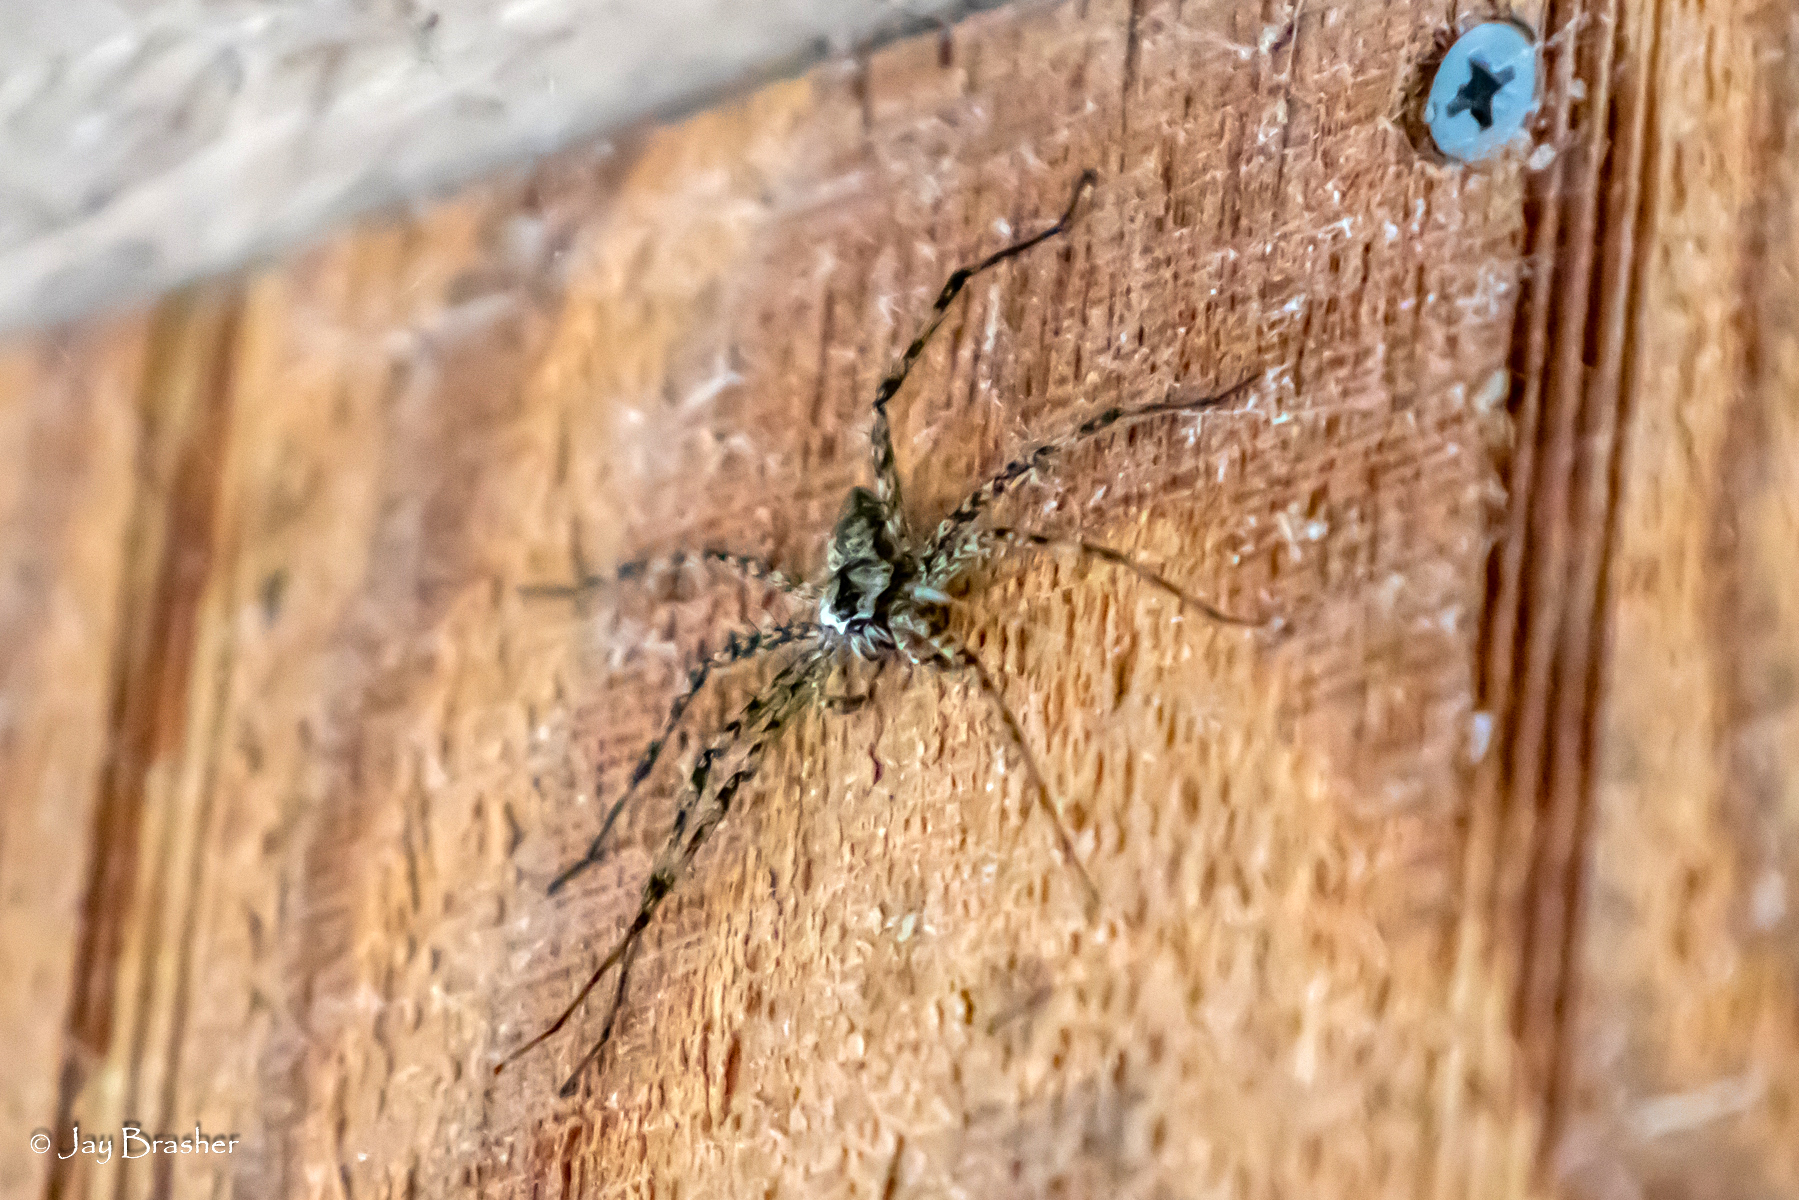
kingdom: Animalia
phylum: Arthropoda
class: Arachnida
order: Araneae
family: Pisauridae
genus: Dolomedes
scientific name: Dolomedes albineus
